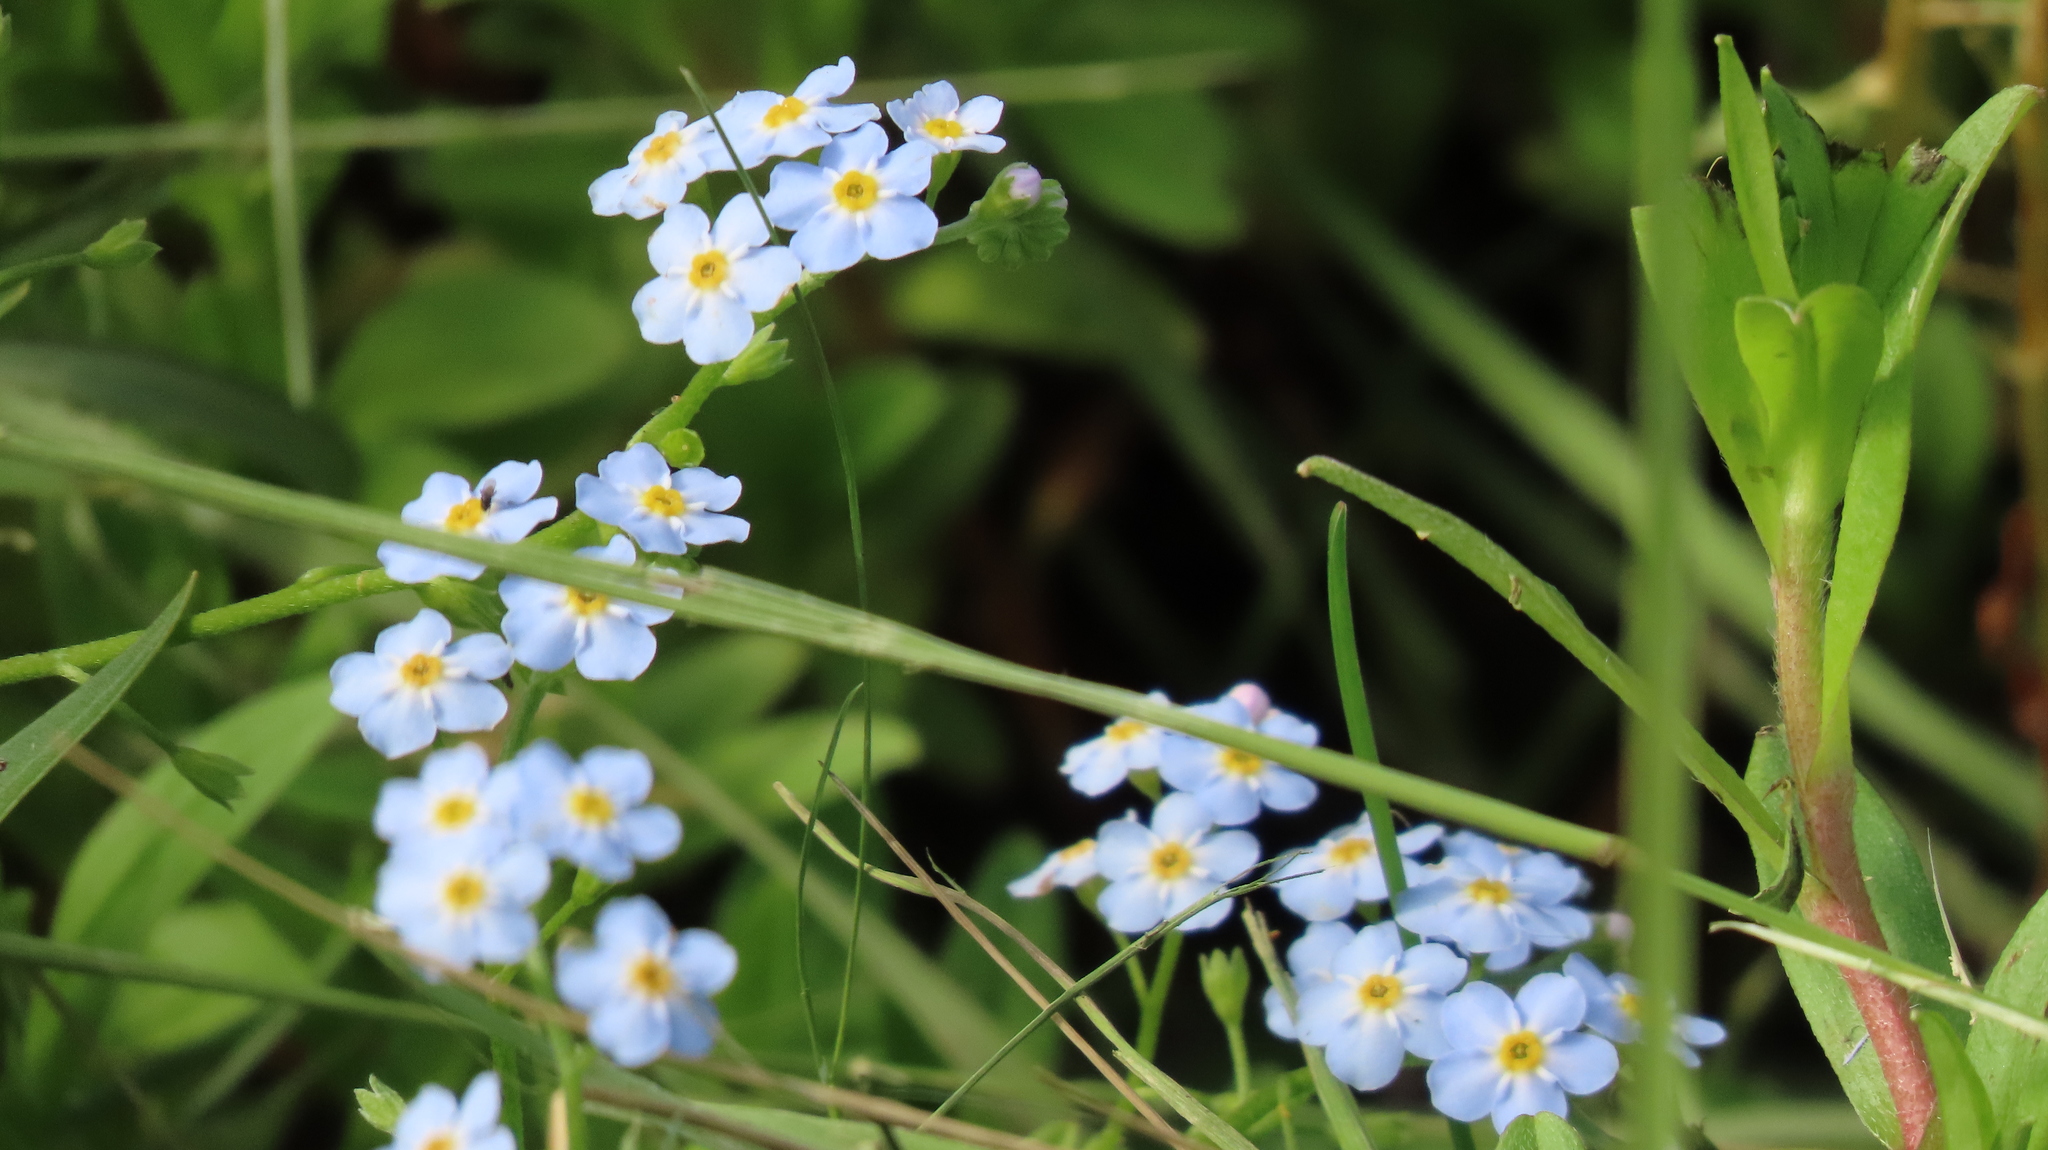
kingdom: Plantae
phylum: Tracheophyta
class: Magnoliopsida
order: Boraginales
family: Boraginaceae
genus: Myosotis
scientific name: Myosotis scorpioides
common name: Water forget-me-not
